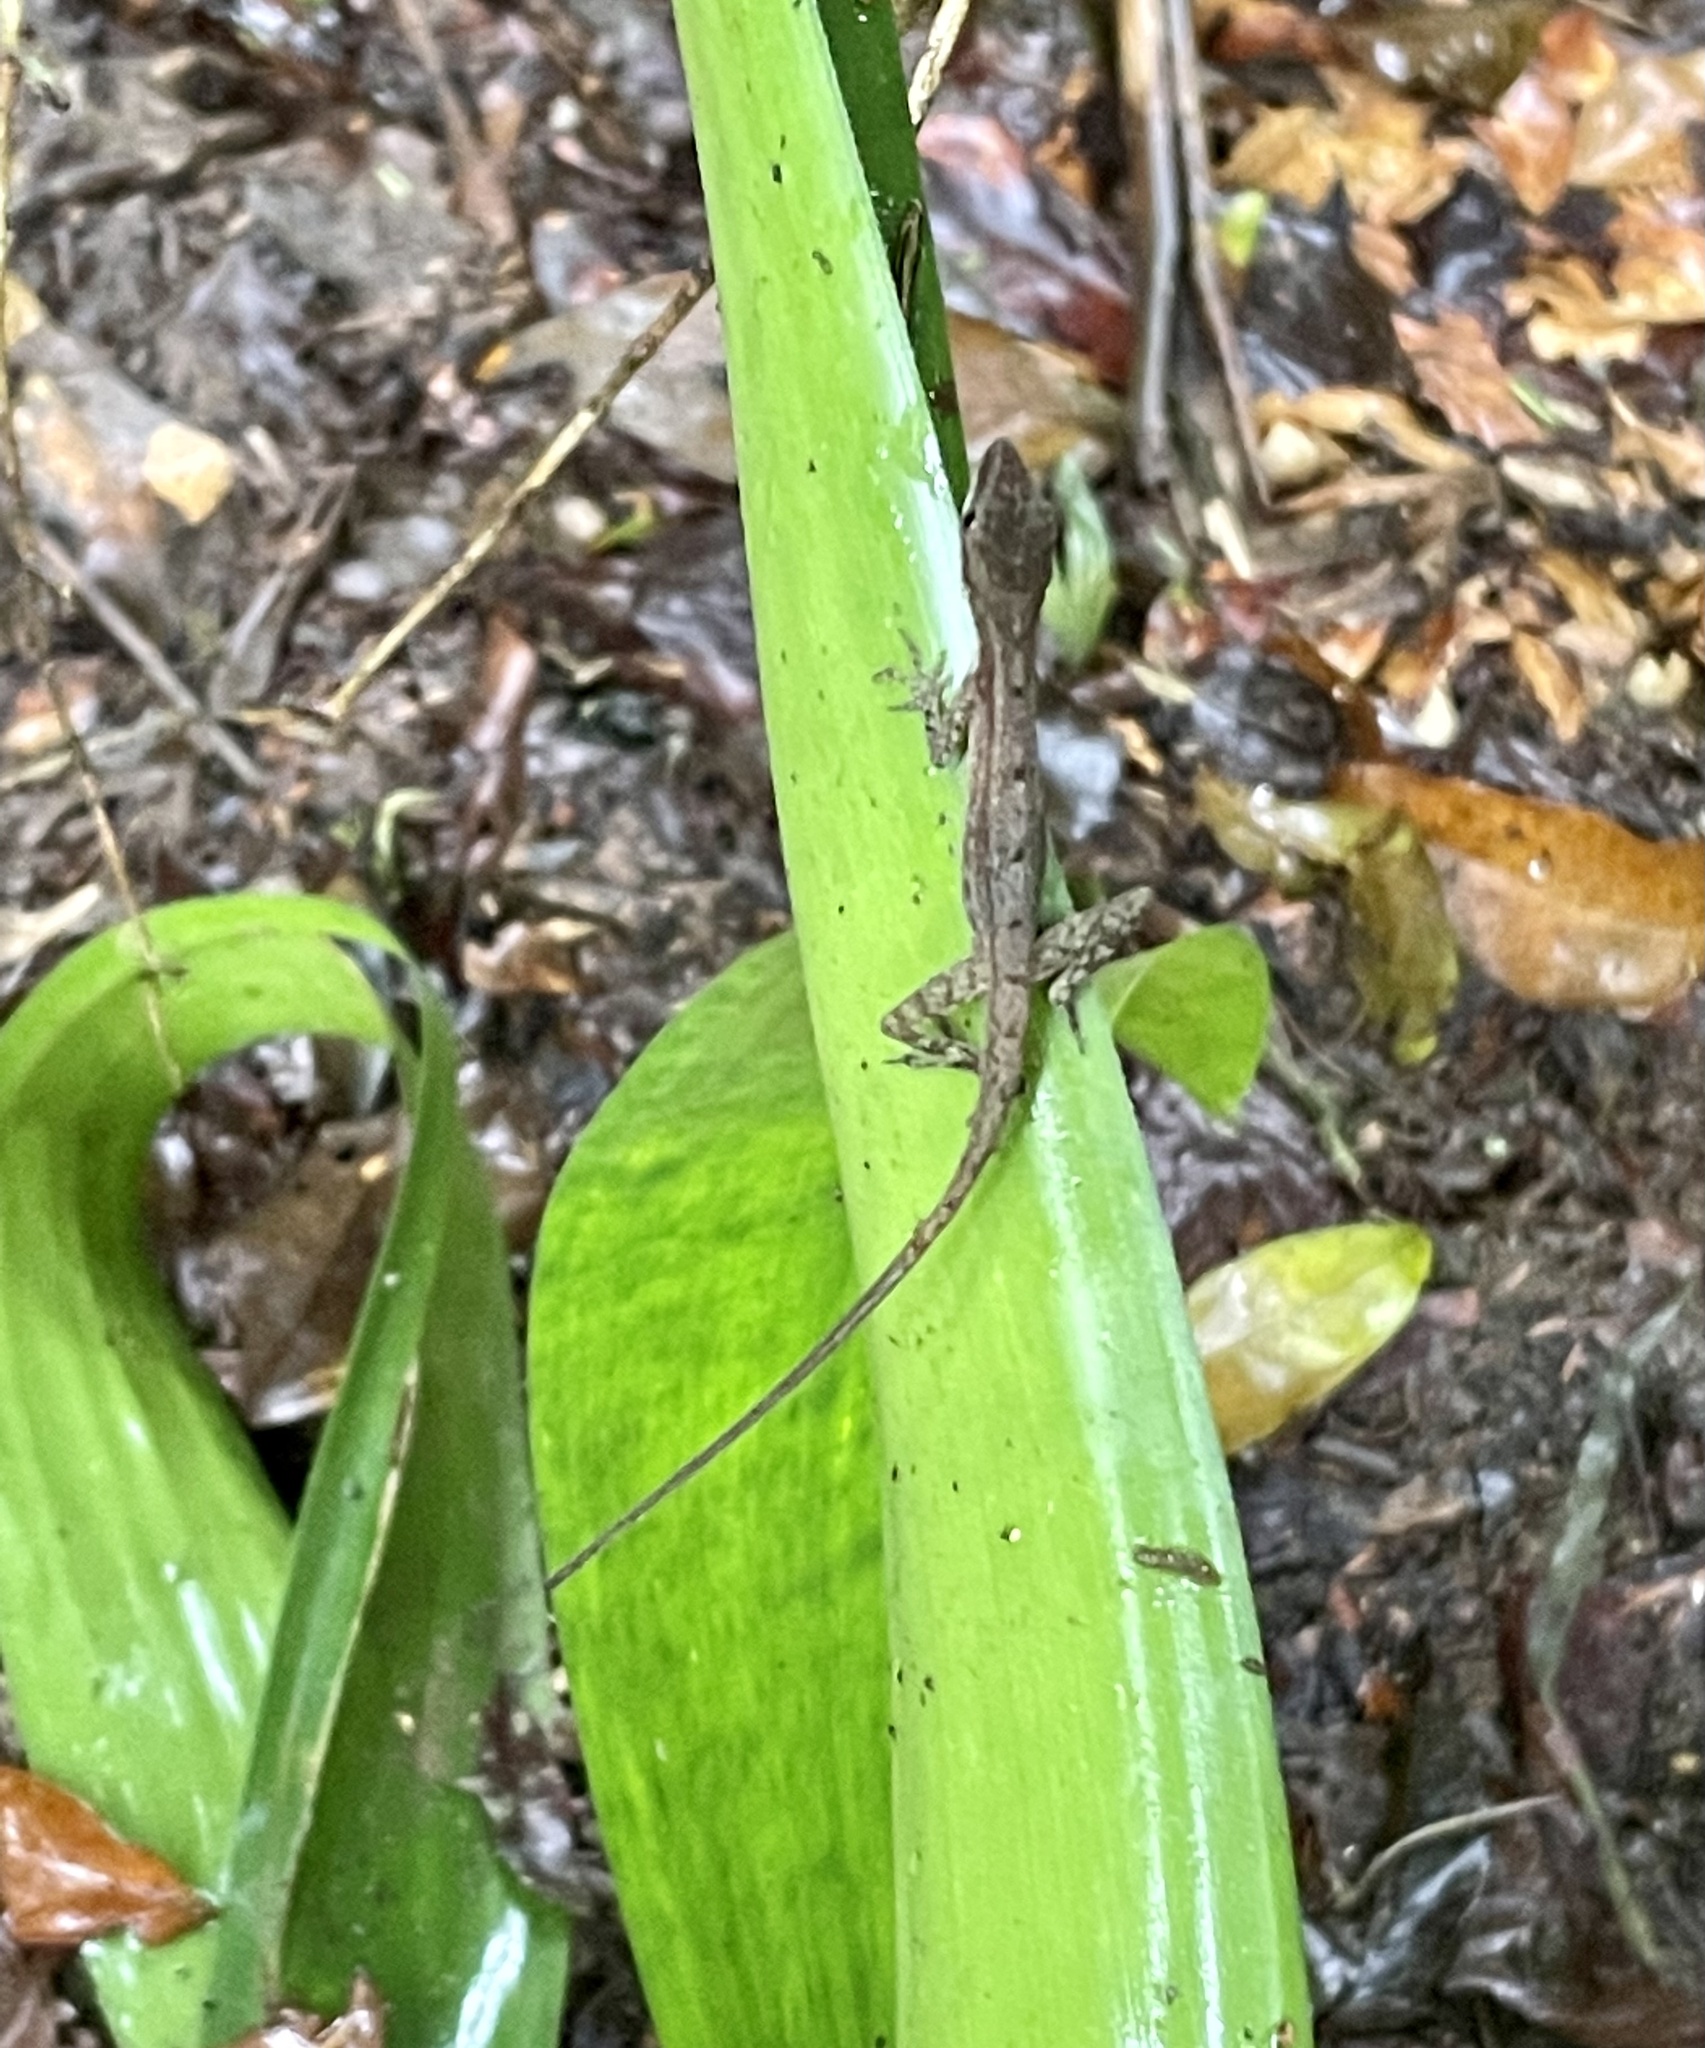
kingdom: Animalia
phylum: Chordata
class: Squamata
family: Dactyloidae
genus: Anolis
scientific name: Anolis limifrons
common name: Border anole
